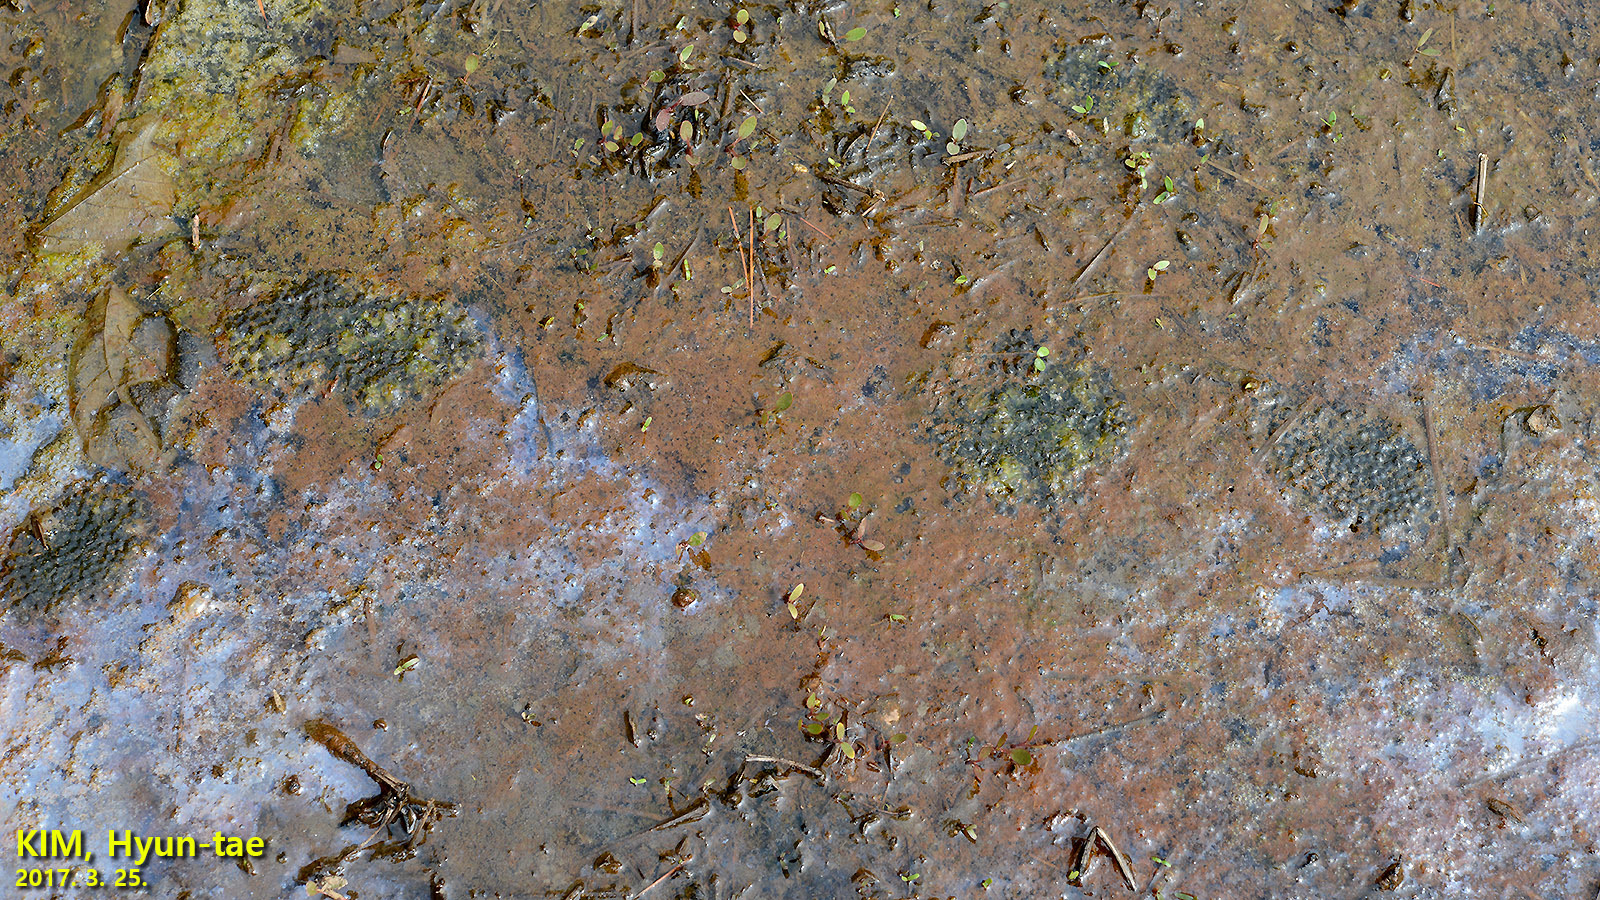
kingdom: Animalia
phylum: Chordata
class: Amphibia
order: Anura
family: Ranidae
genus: Rana
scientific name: Rana coreana
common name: Korean brown frog
